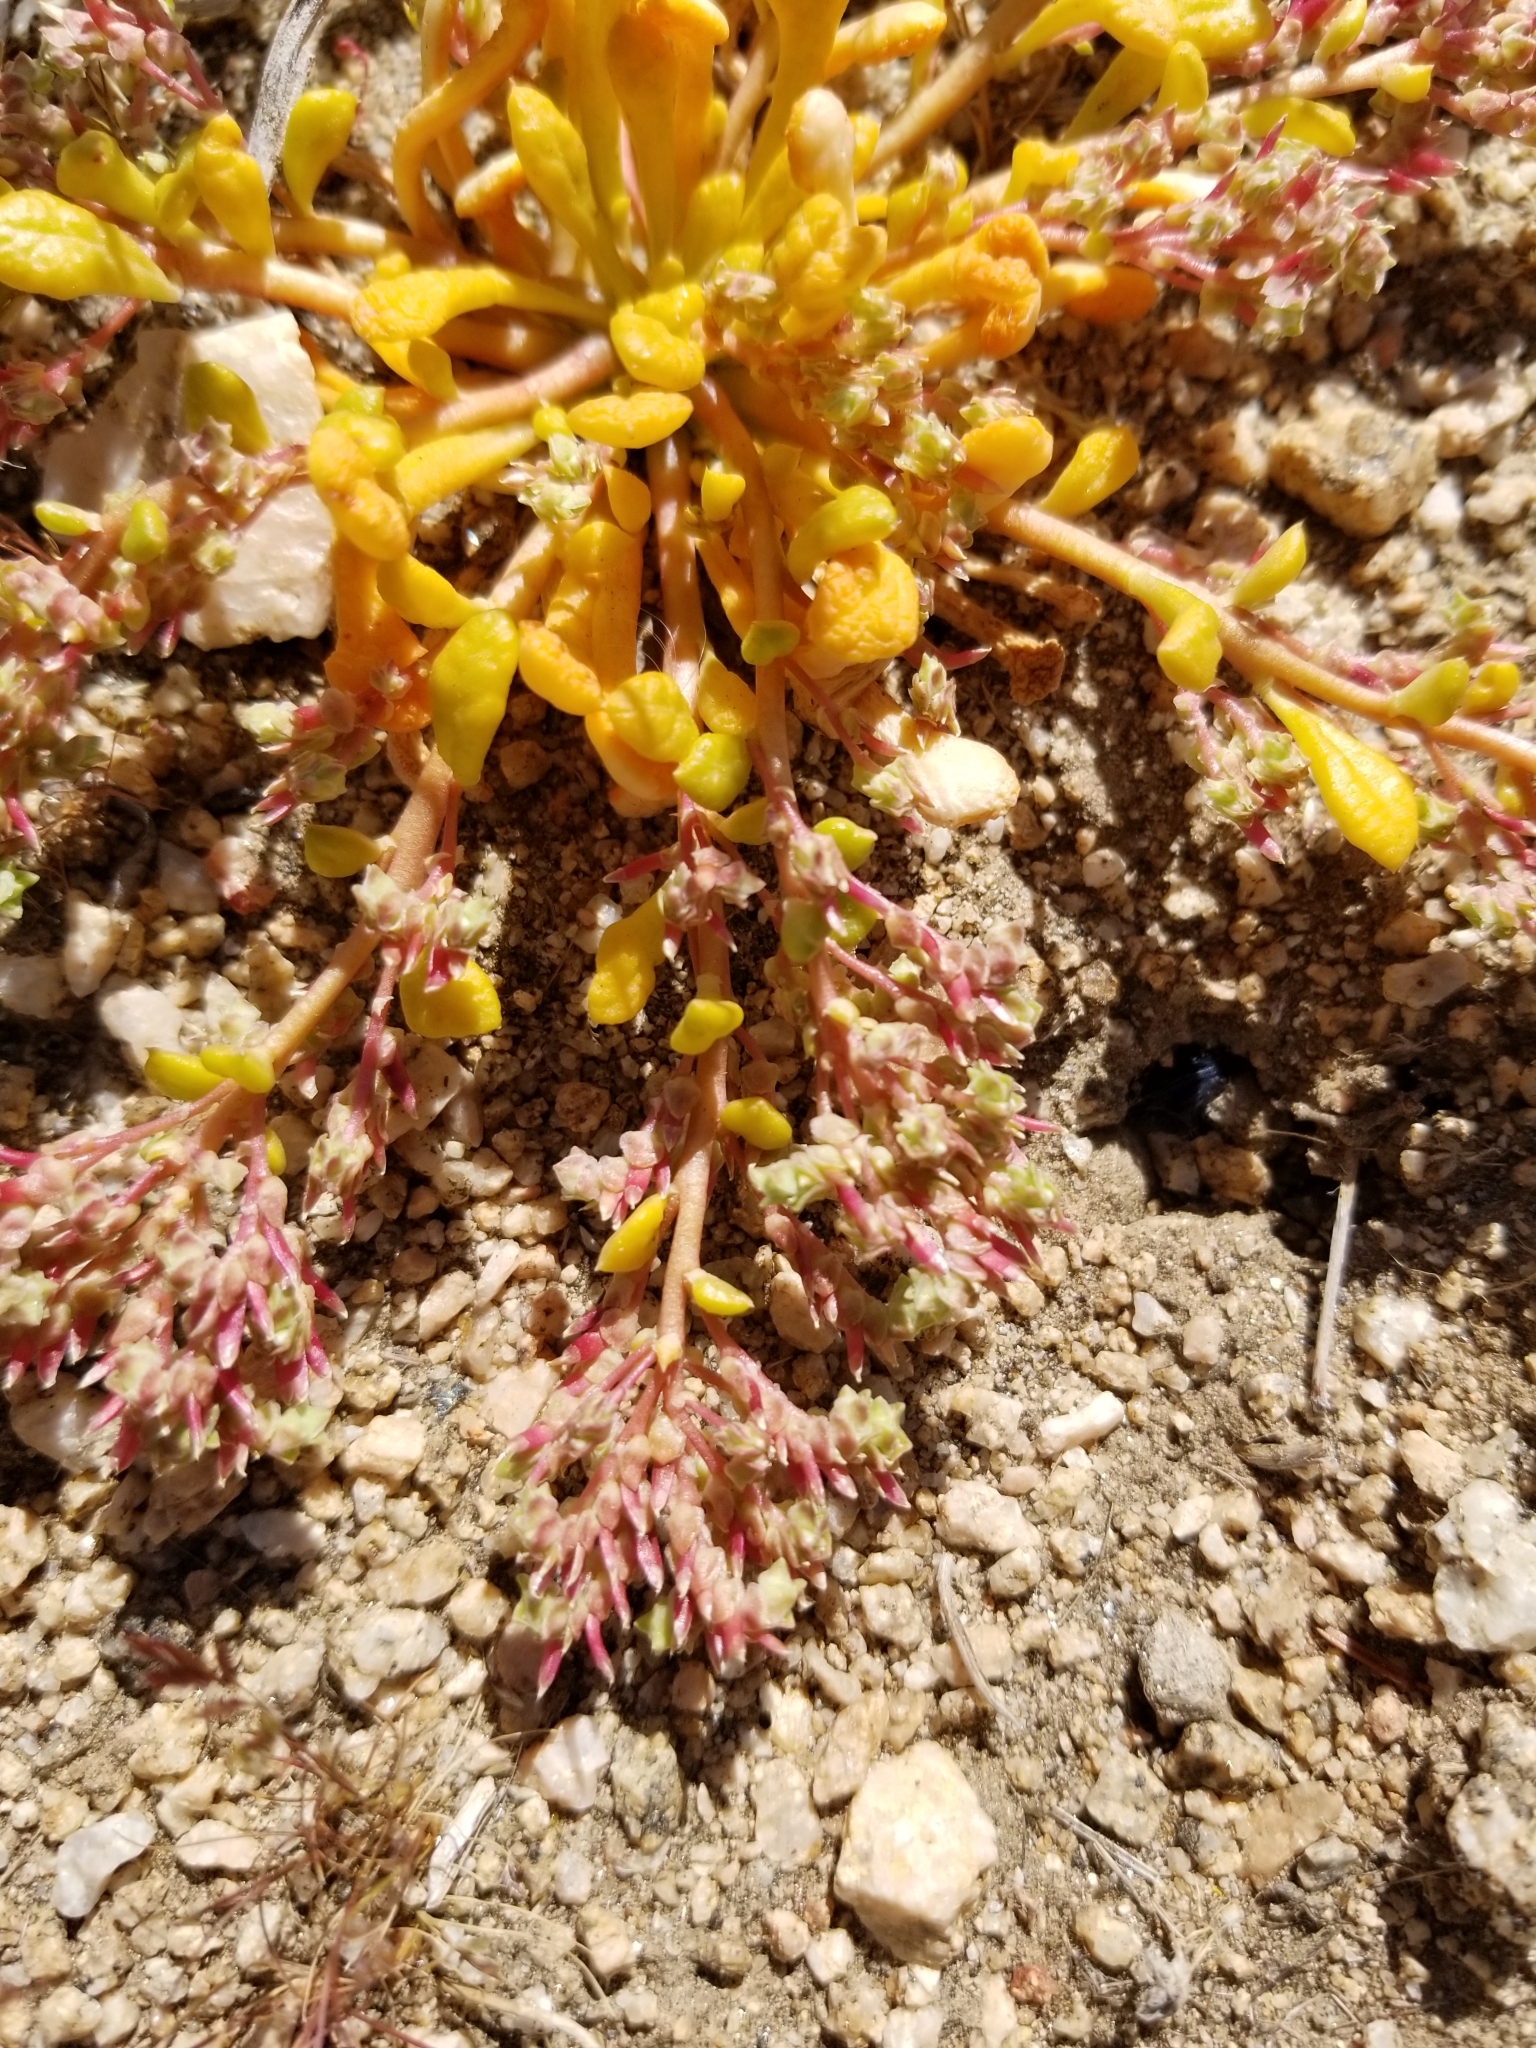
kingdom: Plantae
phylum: Tracheophyta
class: Magnoliopsida
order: Caryophyllales
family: Montiaceae
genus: Calyptridium
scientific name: Calyptridium monandrum
